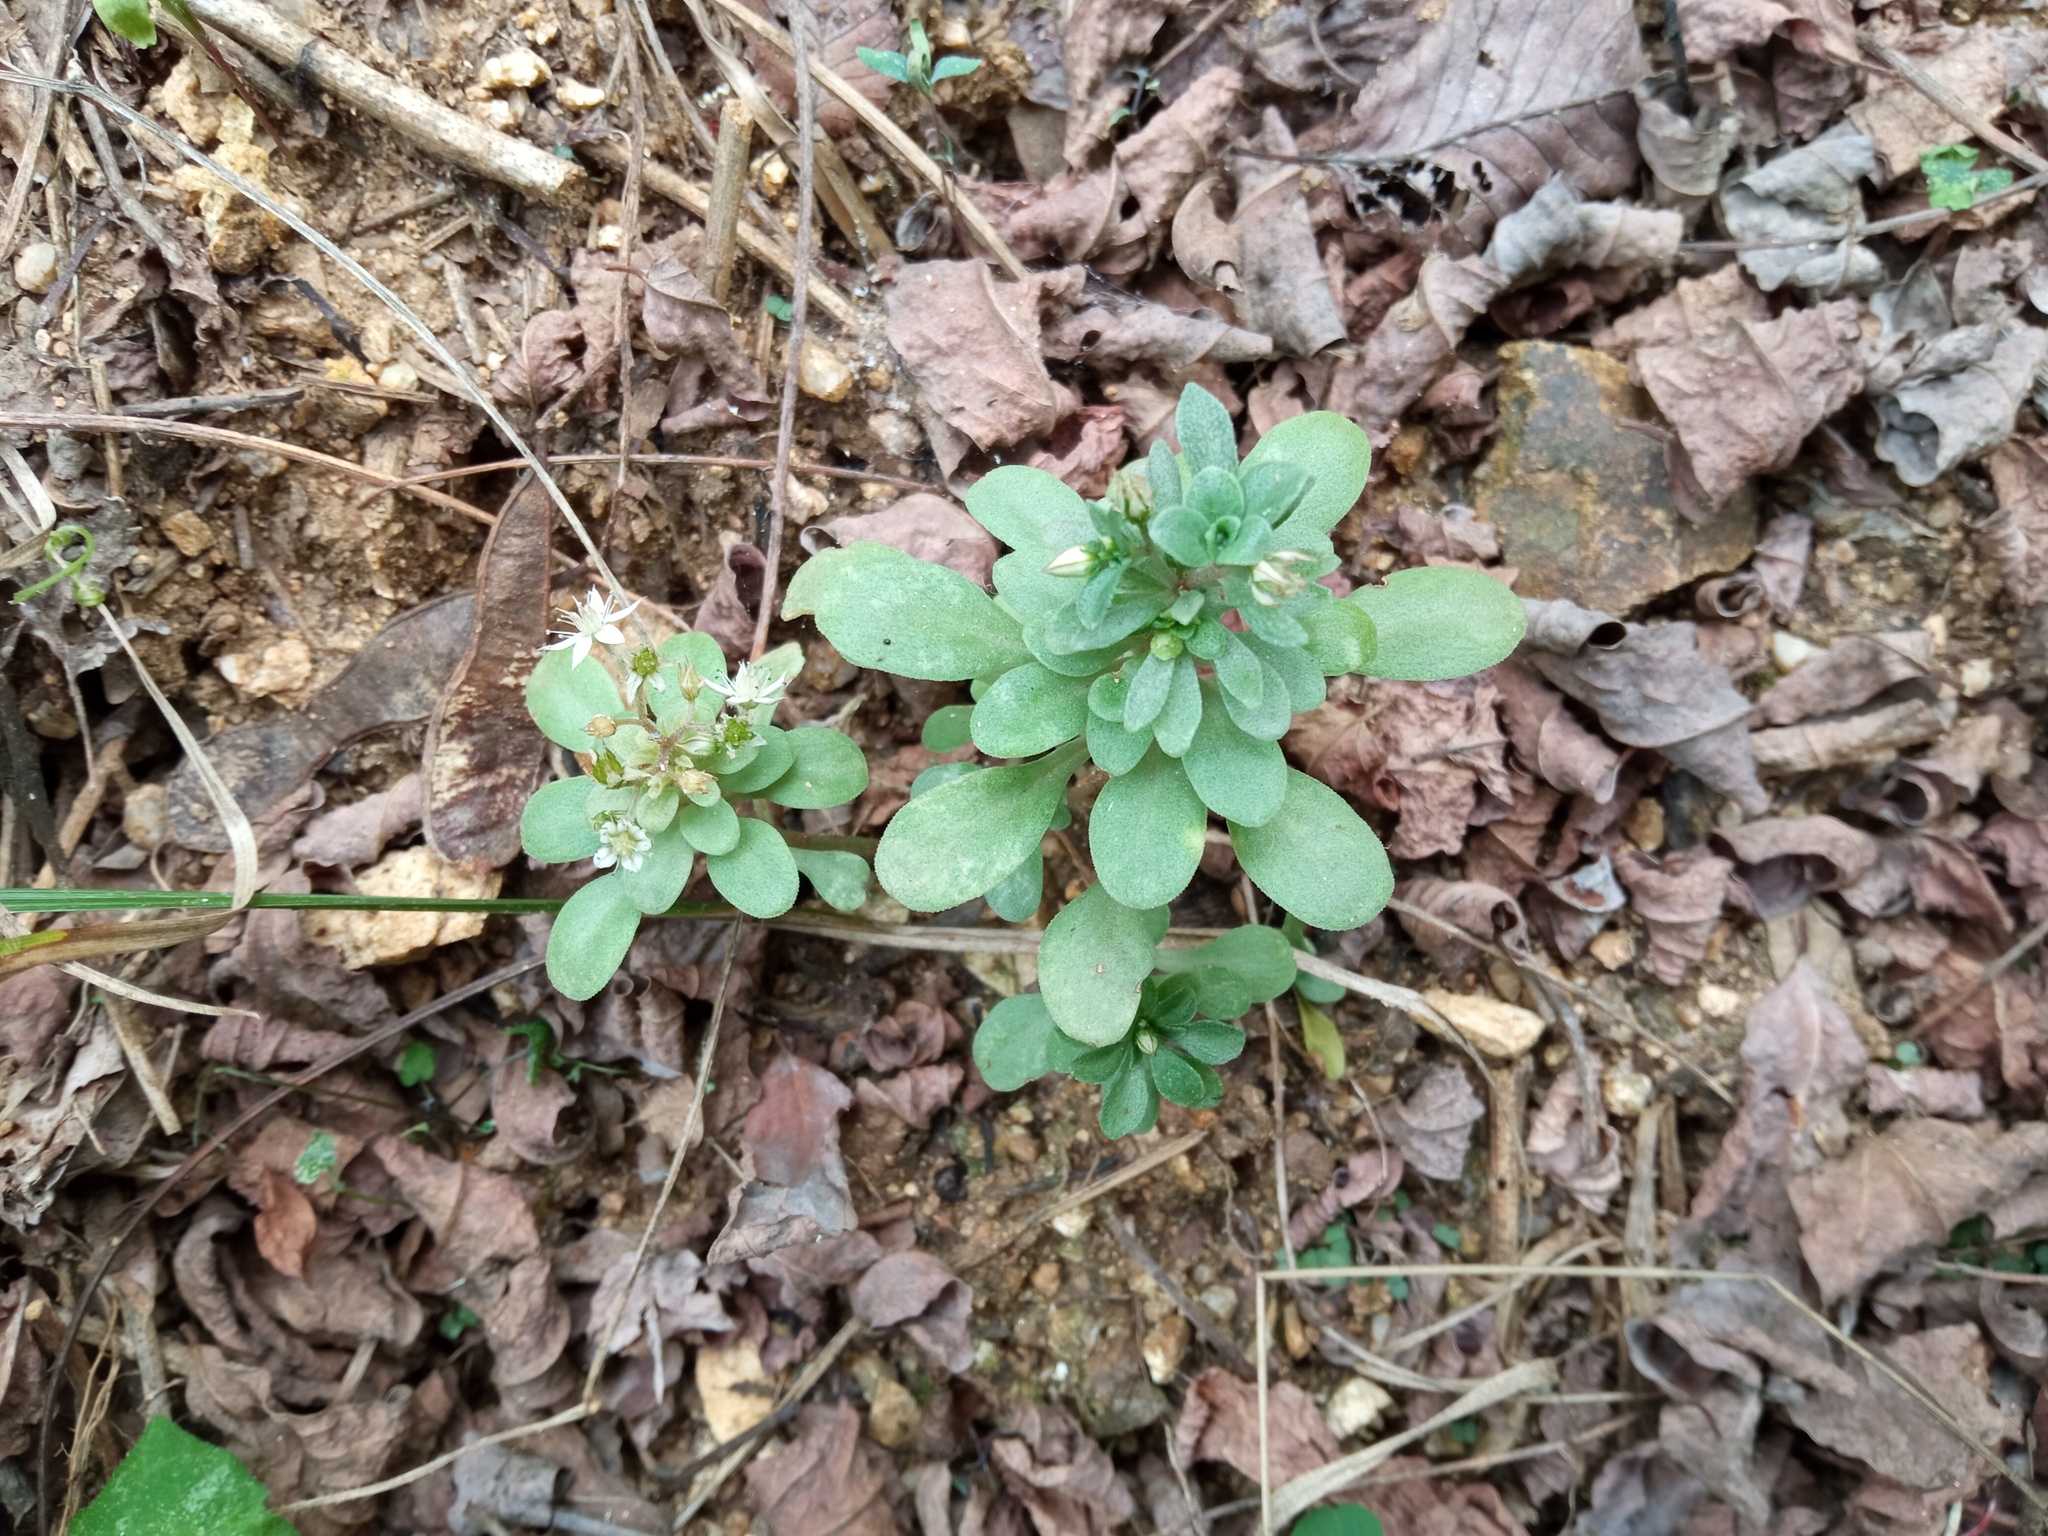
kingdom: Plantae
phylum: Tracheophyta
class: Magnoliopsida
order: Saxifragales
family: Crassulaceae
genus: Sedum
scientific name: Sedum cepaea
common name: Pink stonecrop
